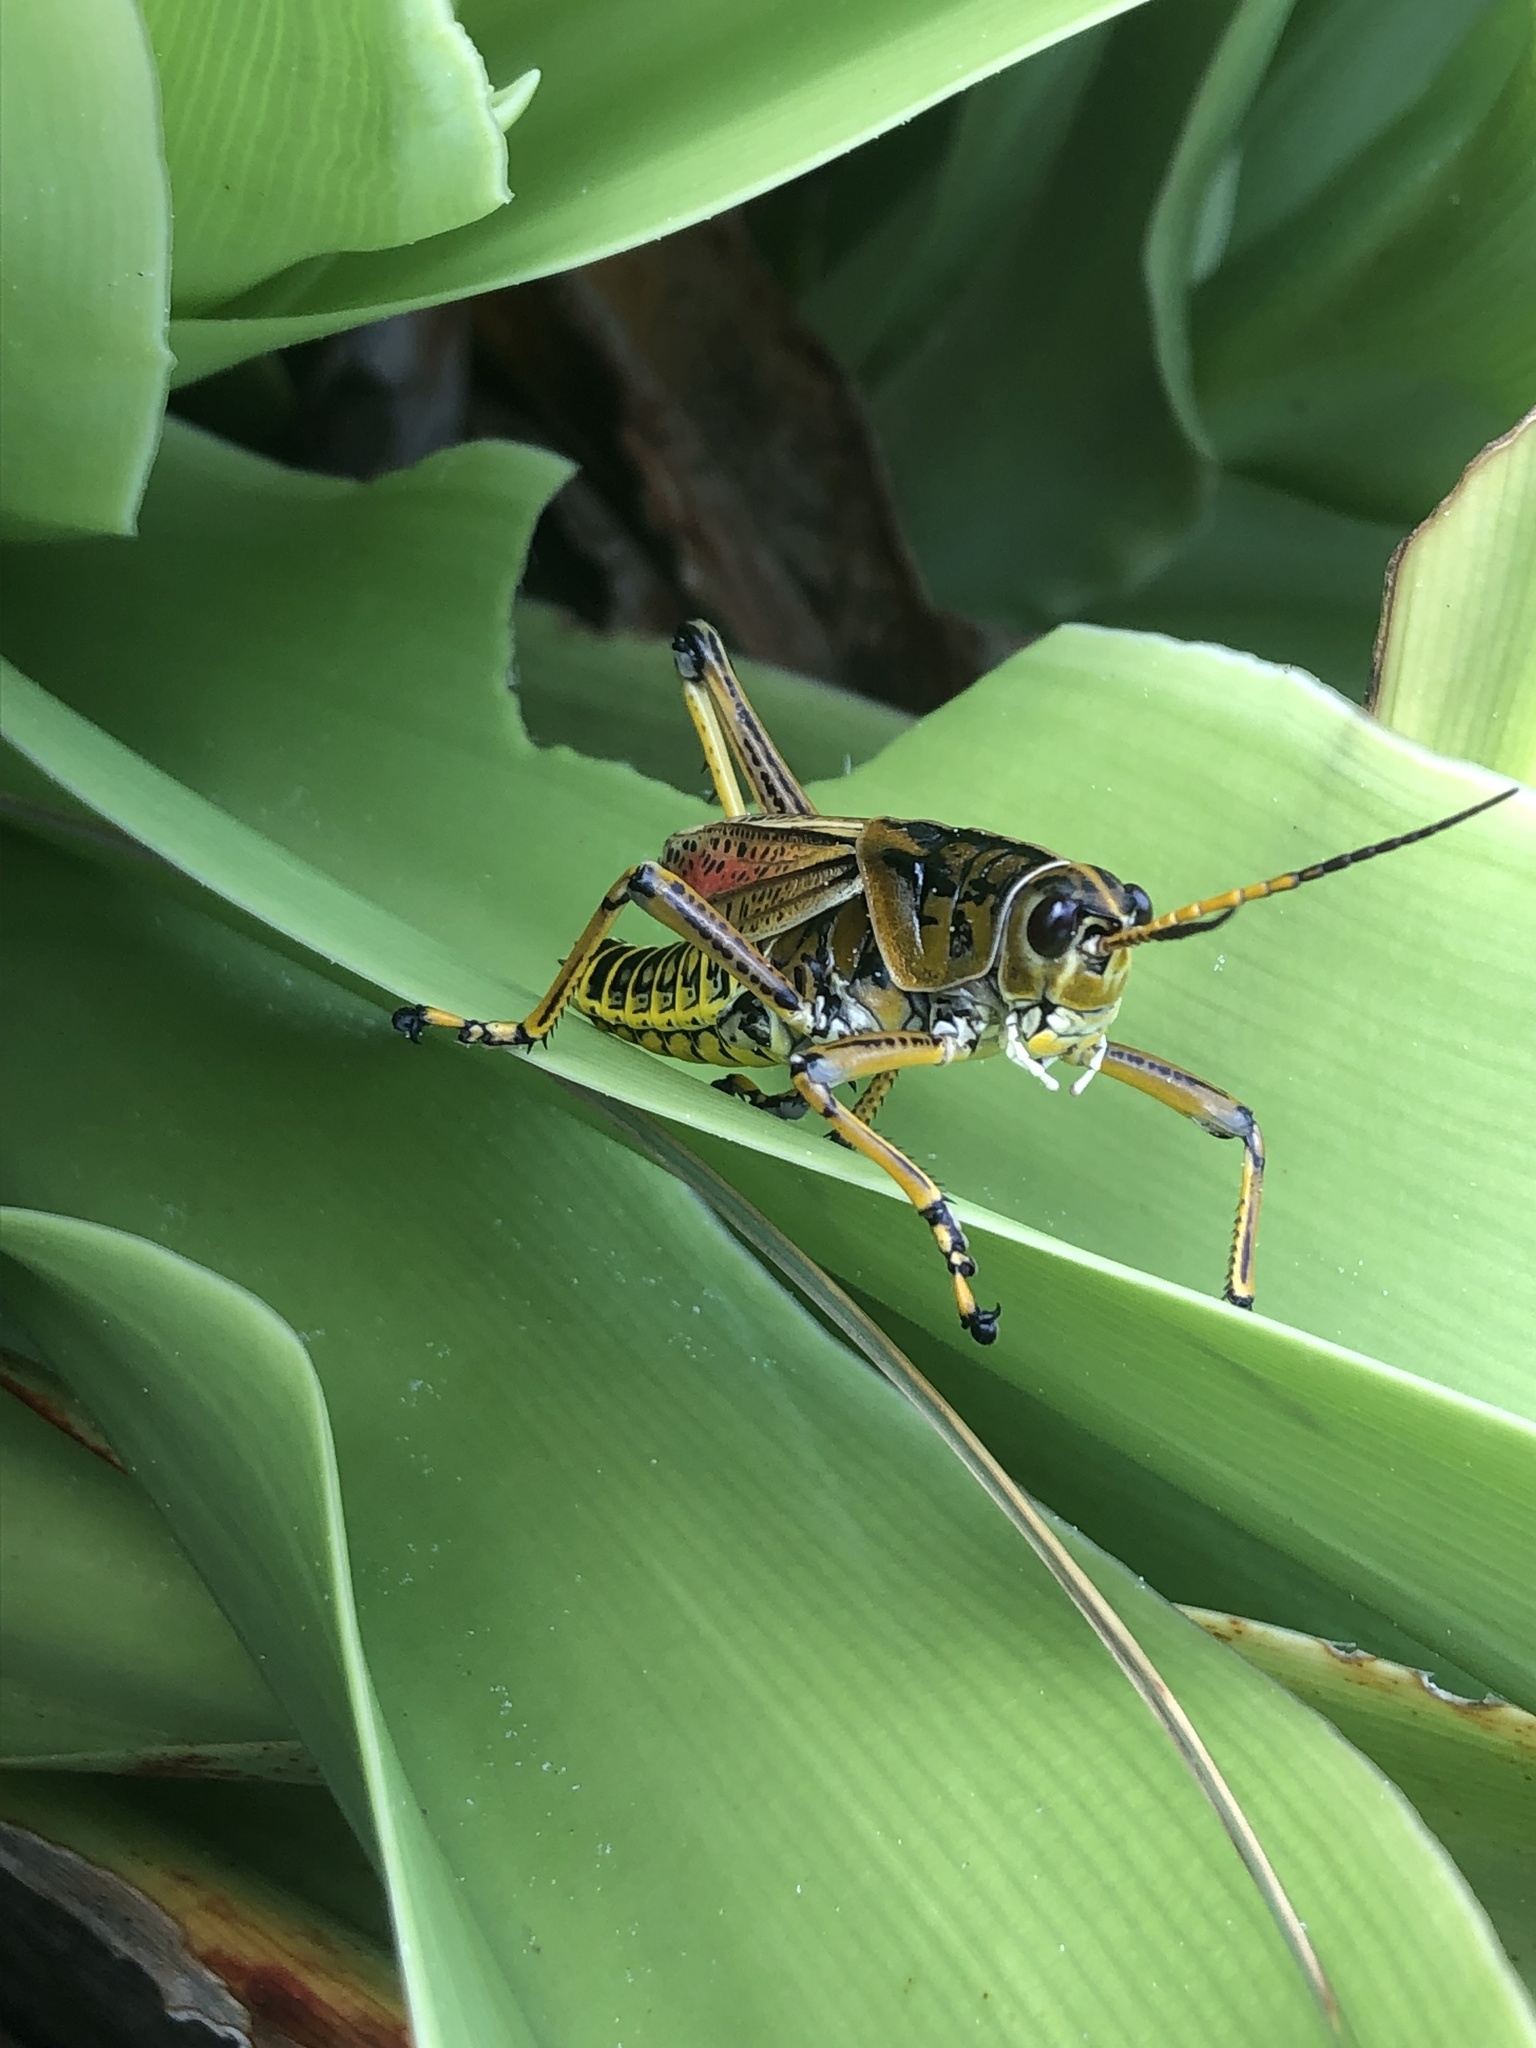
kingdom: Animalia
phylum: Arthropoda
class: Insecta
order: Orthoptera
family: Romaleidae
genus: Romalea
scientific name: Romalea microptera
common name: Eastern lubber grasshopper
